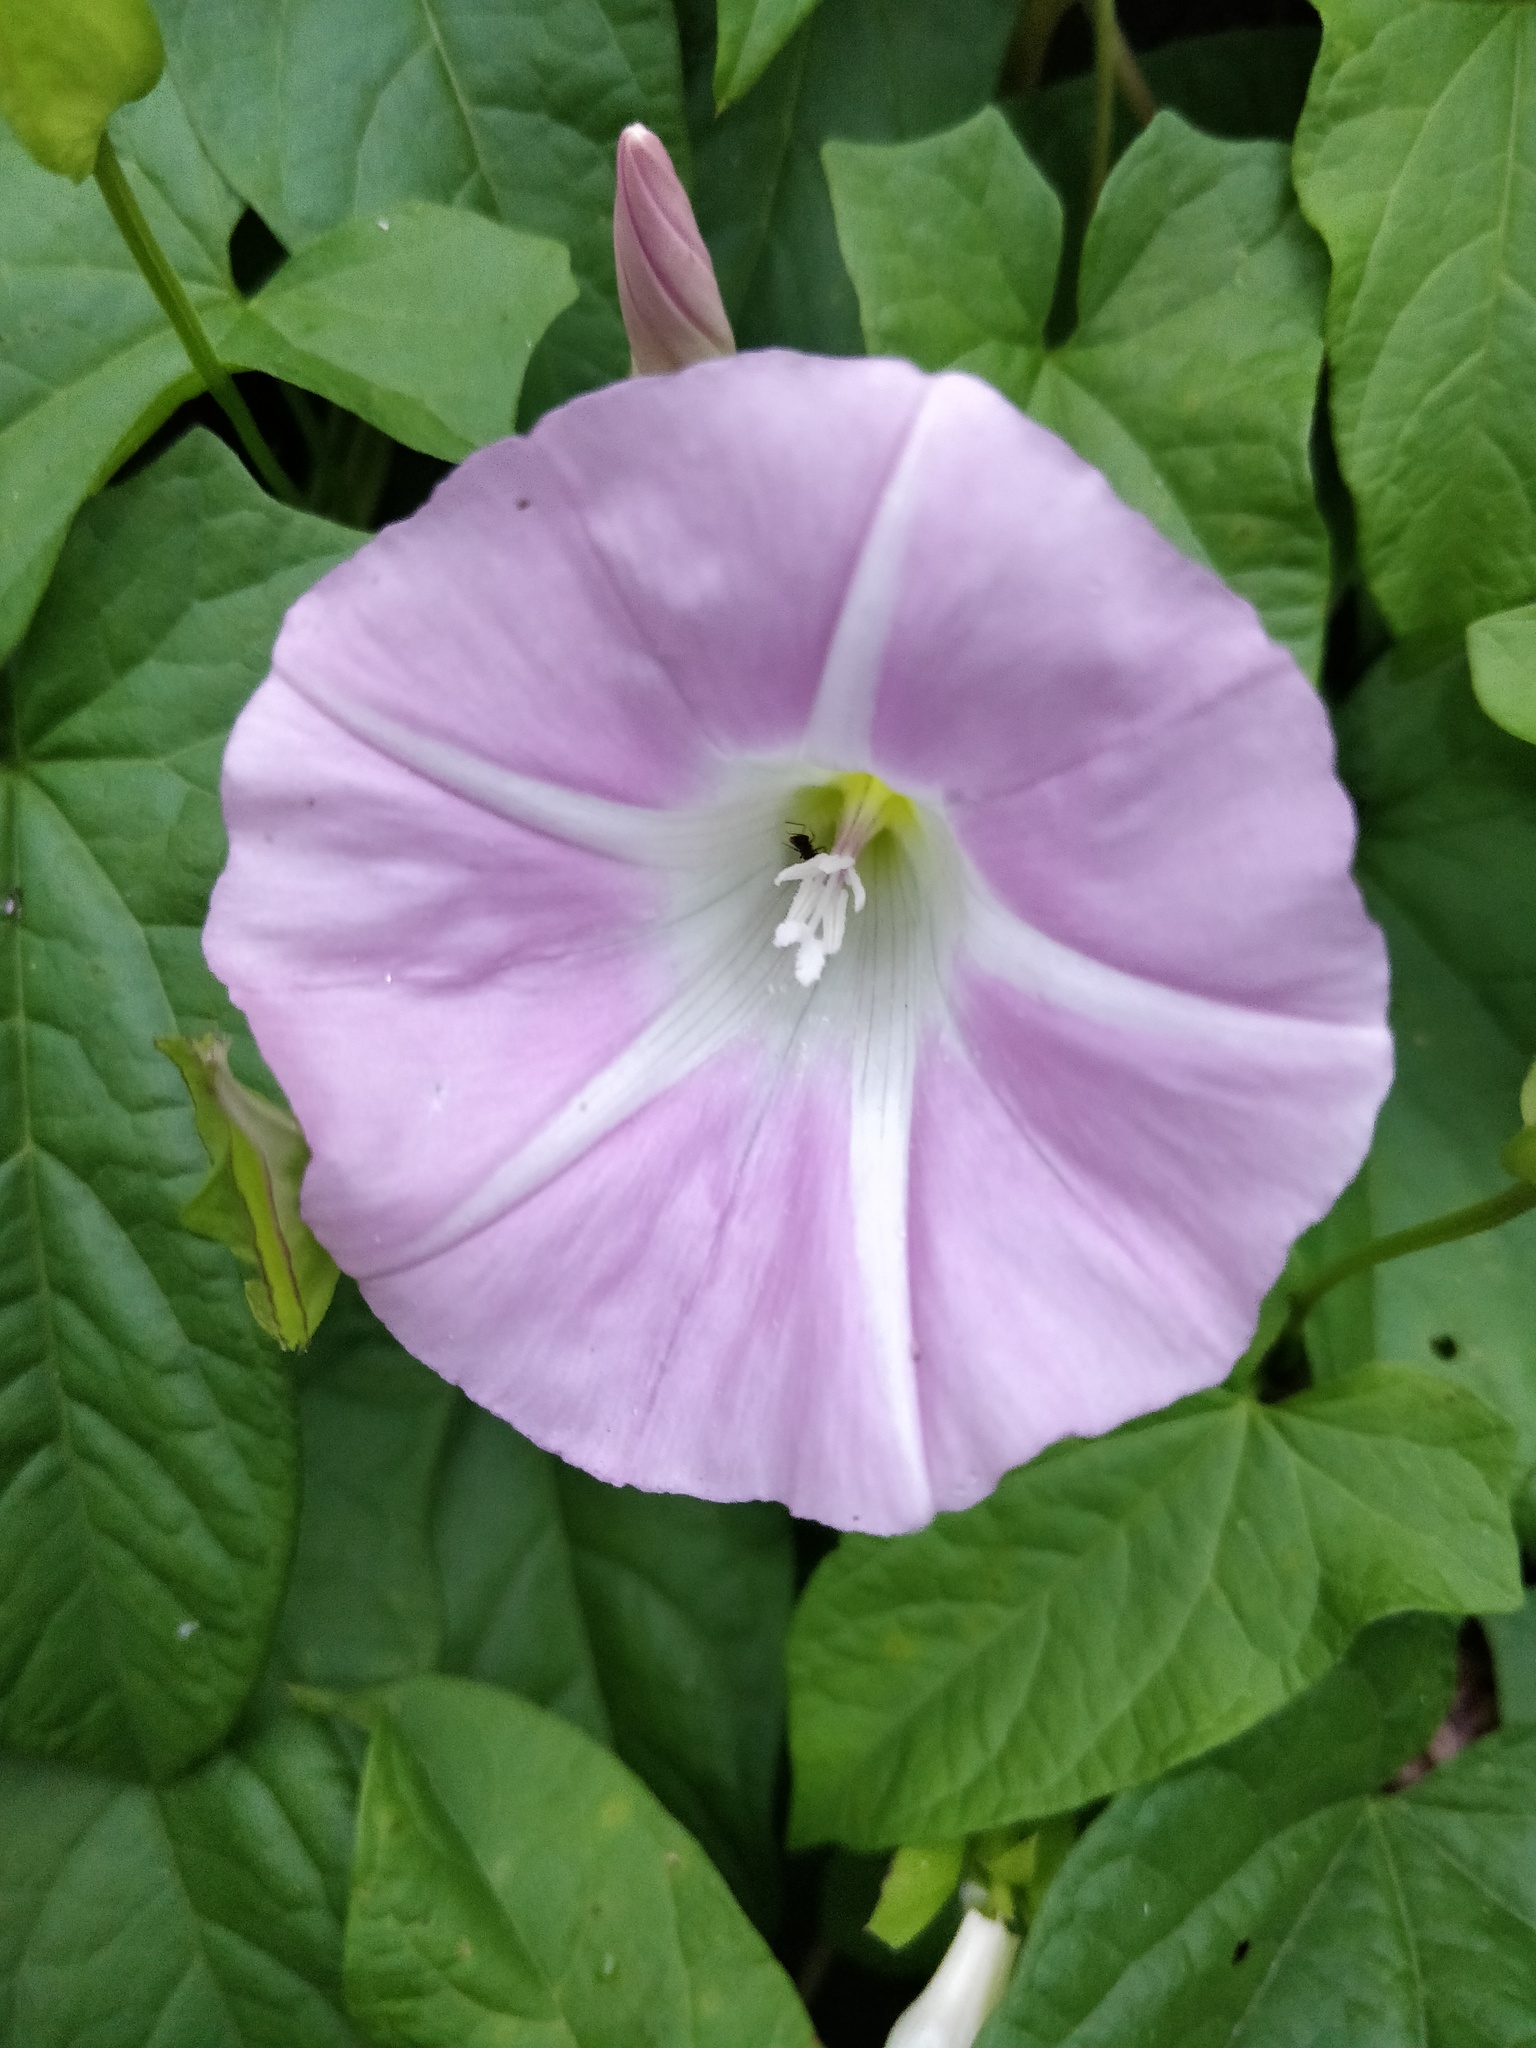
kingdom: Plantae
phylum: Tracheophyta
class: Magnoliopsida
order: Solanales
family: Convolvulaceae
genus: Calystegia
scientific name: Calystegia sepium
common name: Hedge bindweed
